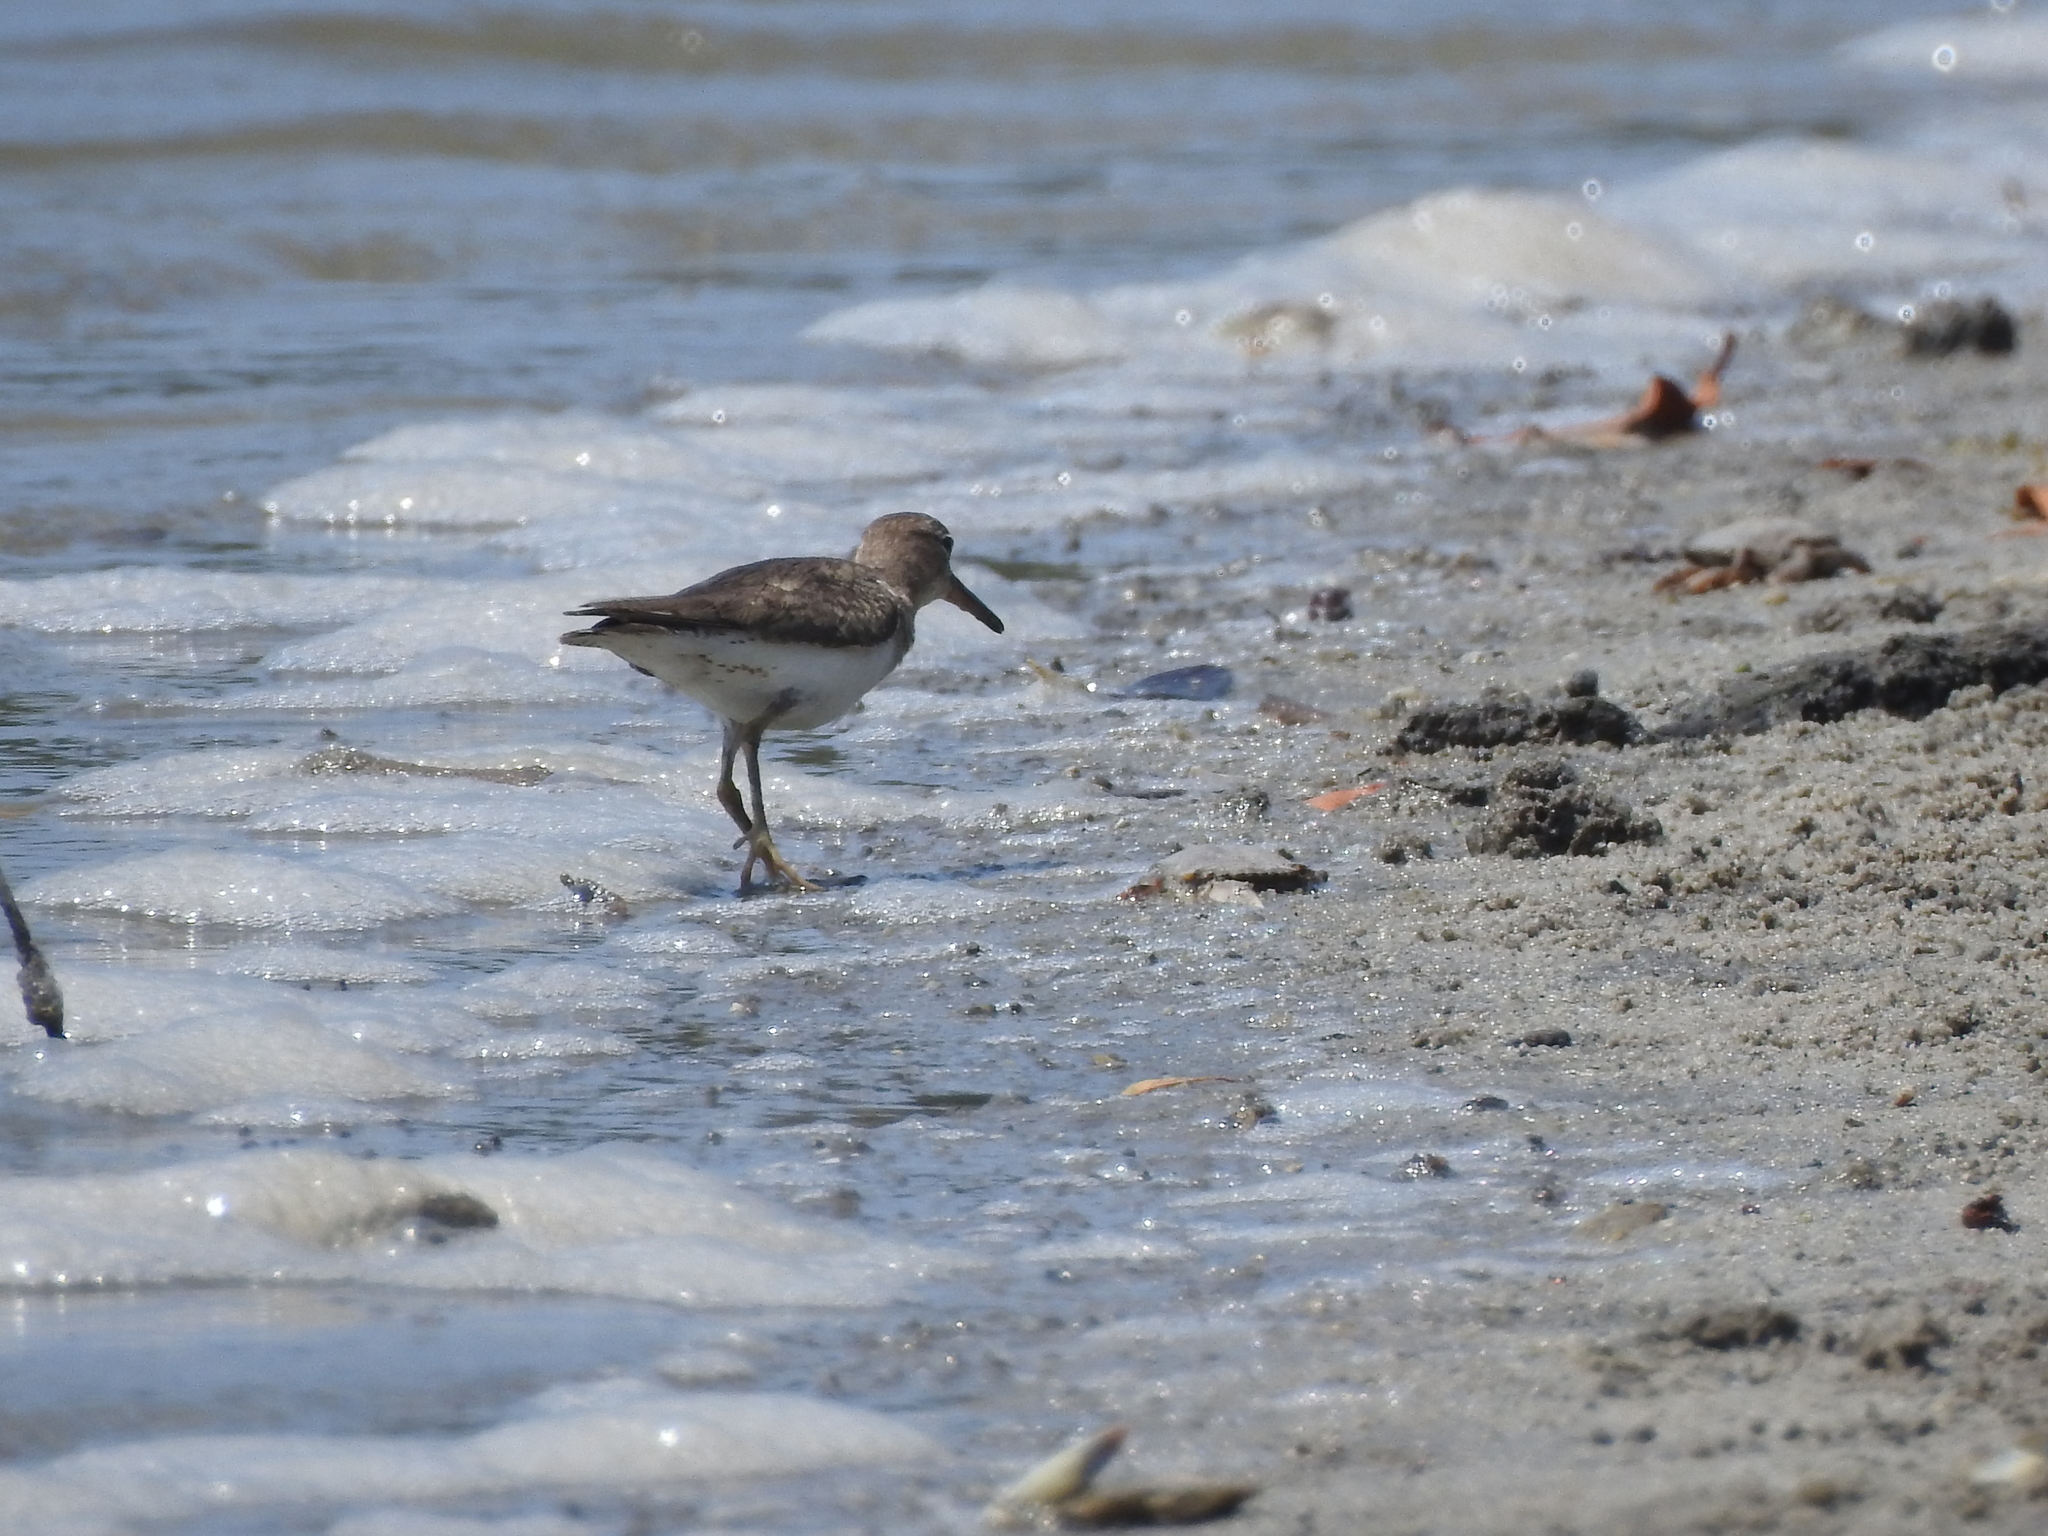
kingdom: Animalia
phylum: Chordata
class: Aves
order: Charadriiformes
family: Scolopacidae
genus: Calidris
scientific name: Calidris minutilla
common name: Least sandpiper
